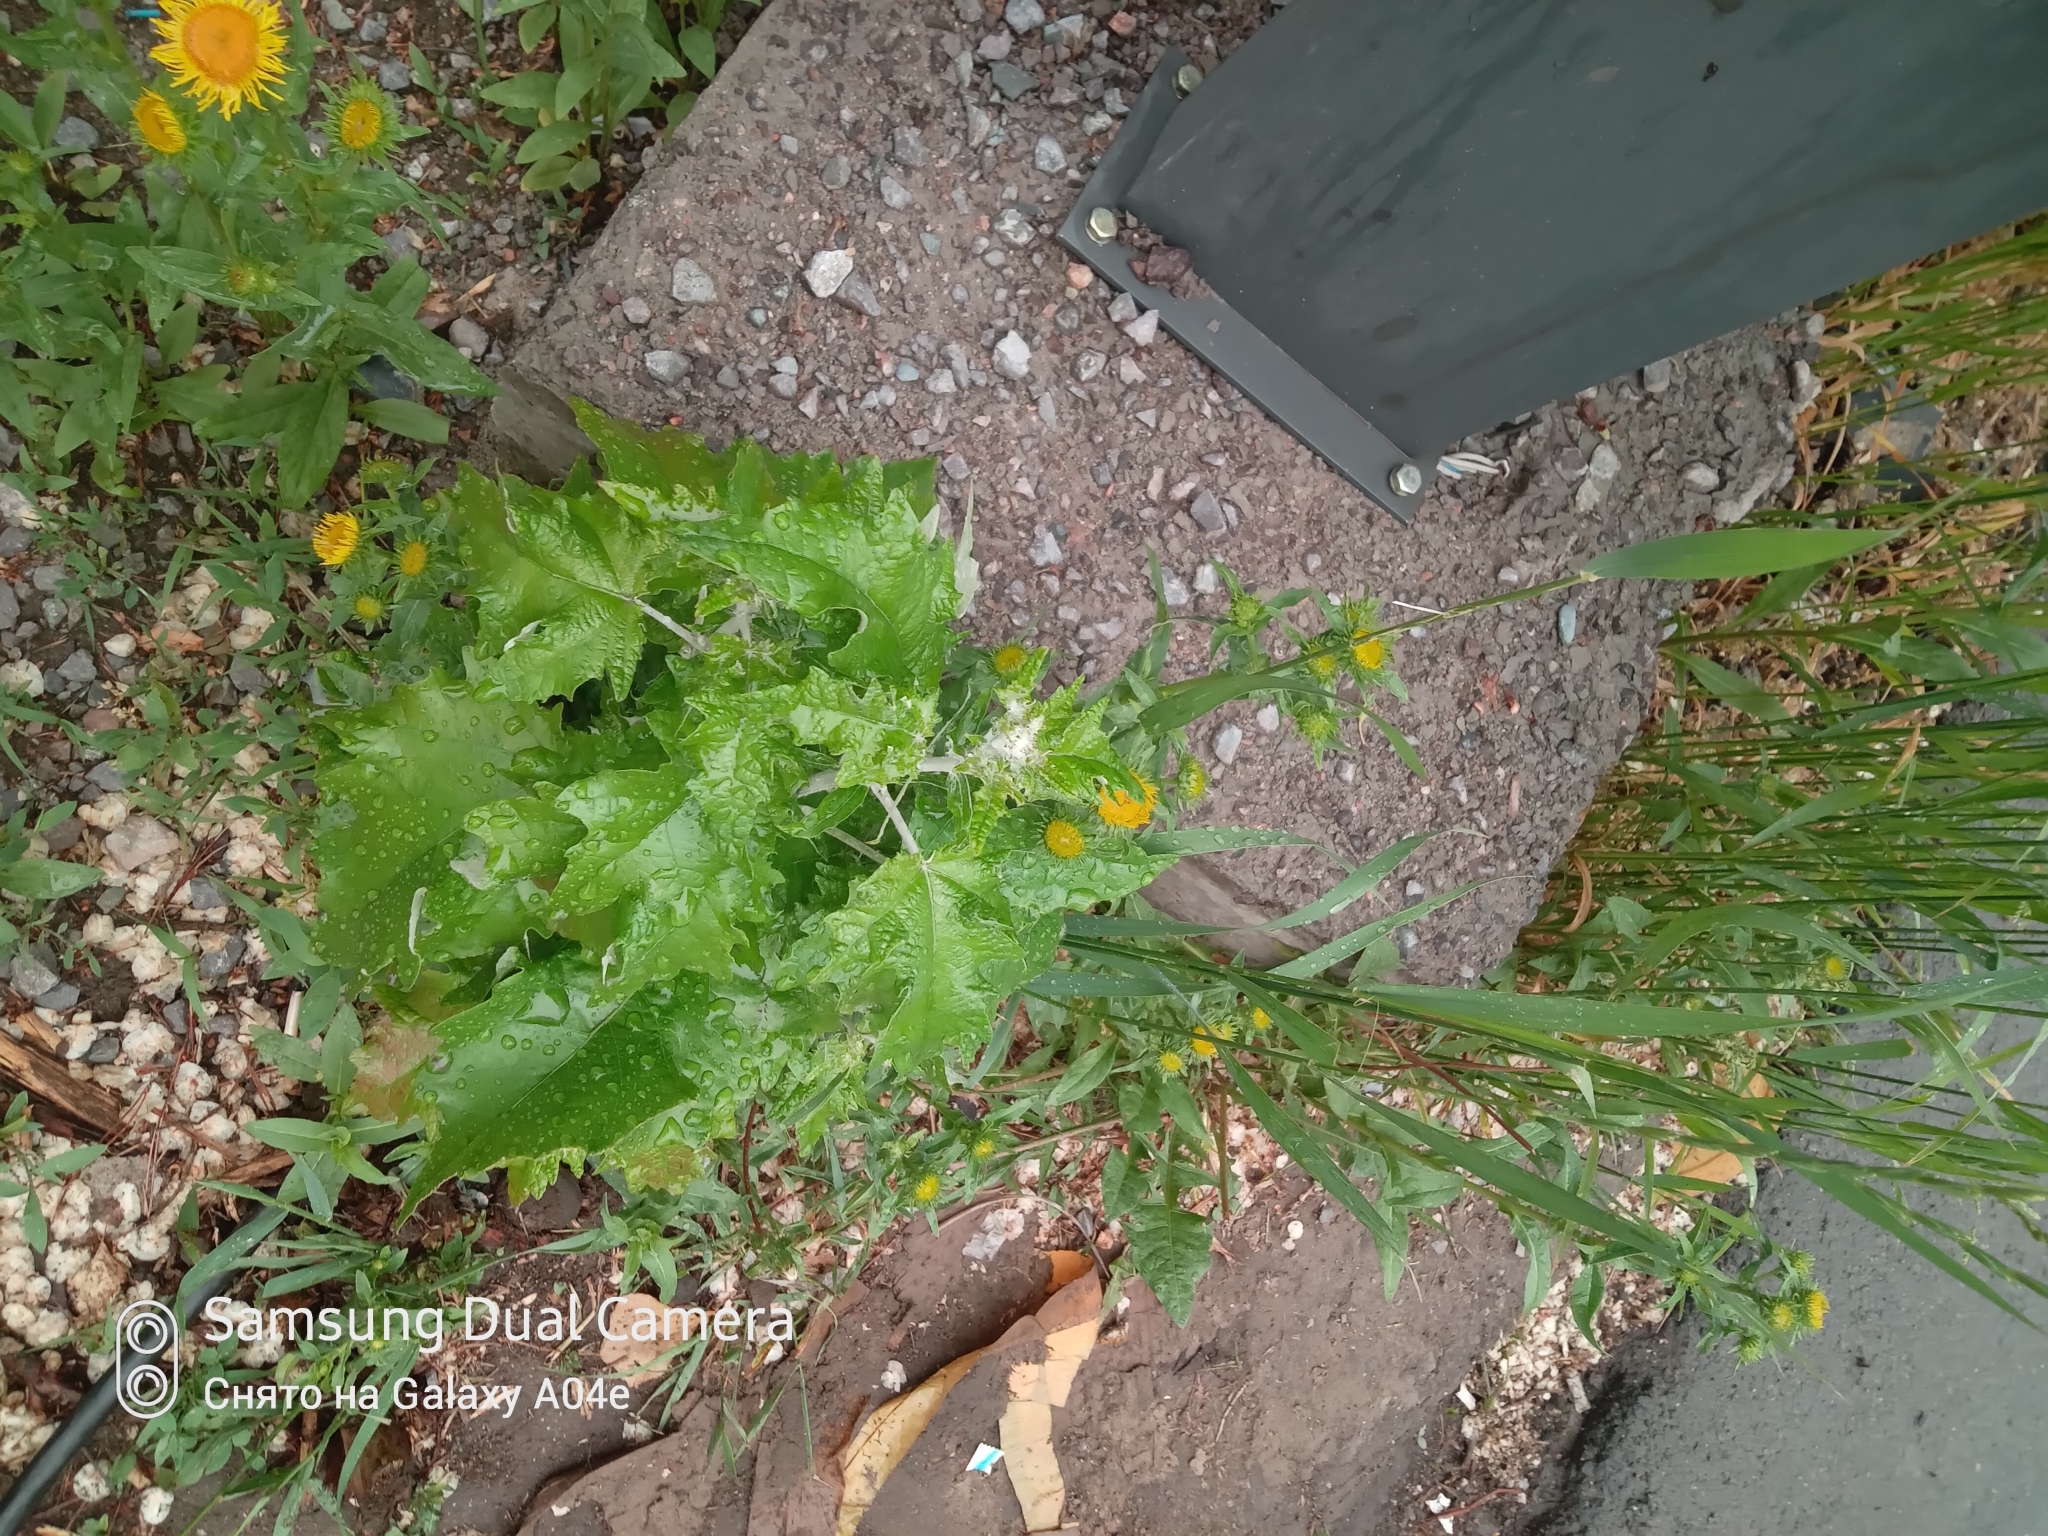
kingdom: Plantae
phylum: Tracheophyta
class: Magnoliopsida
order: Malpighiales
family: Salicaceae
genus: Populus
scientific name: Populus alba
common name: White poplar
